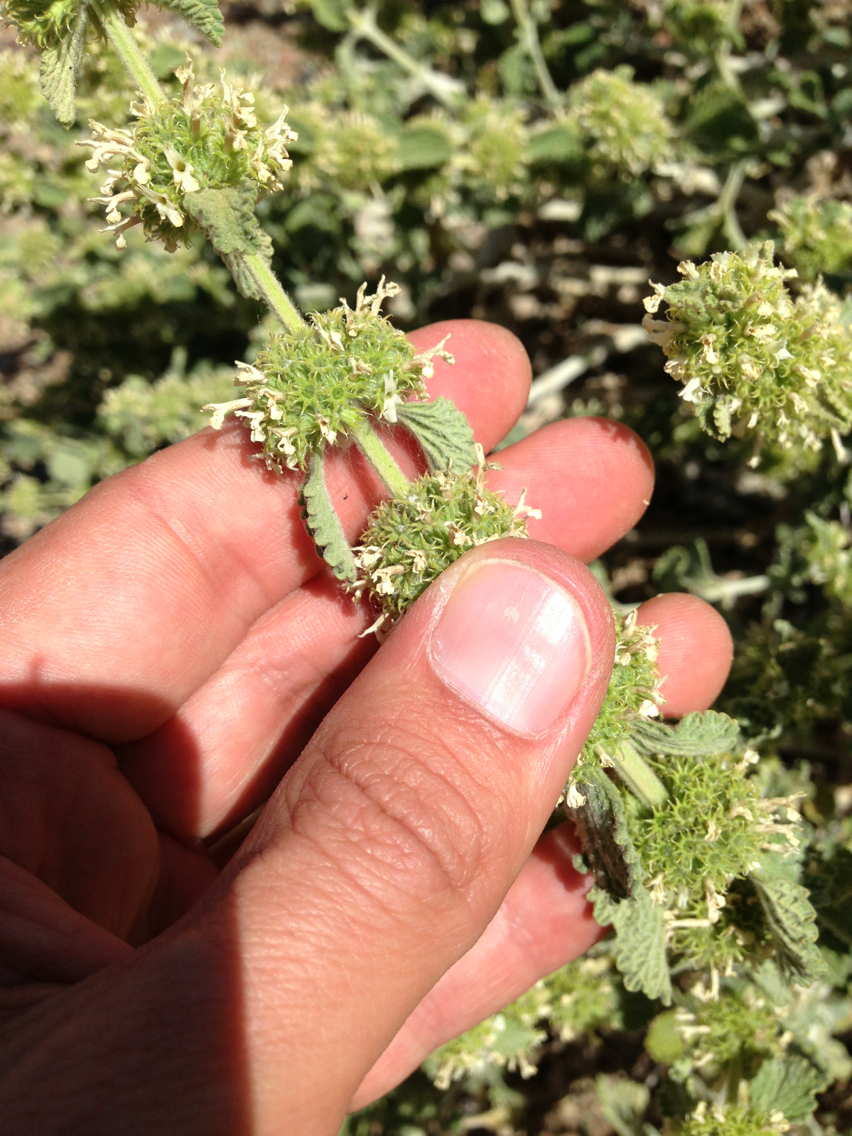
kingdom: Plantae
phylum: Tracheophyta
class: Magnoliopsida
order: Lamiales
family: Lamiaceae
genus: Marrubium
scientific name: Marrubium vulgare
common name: Horehound
